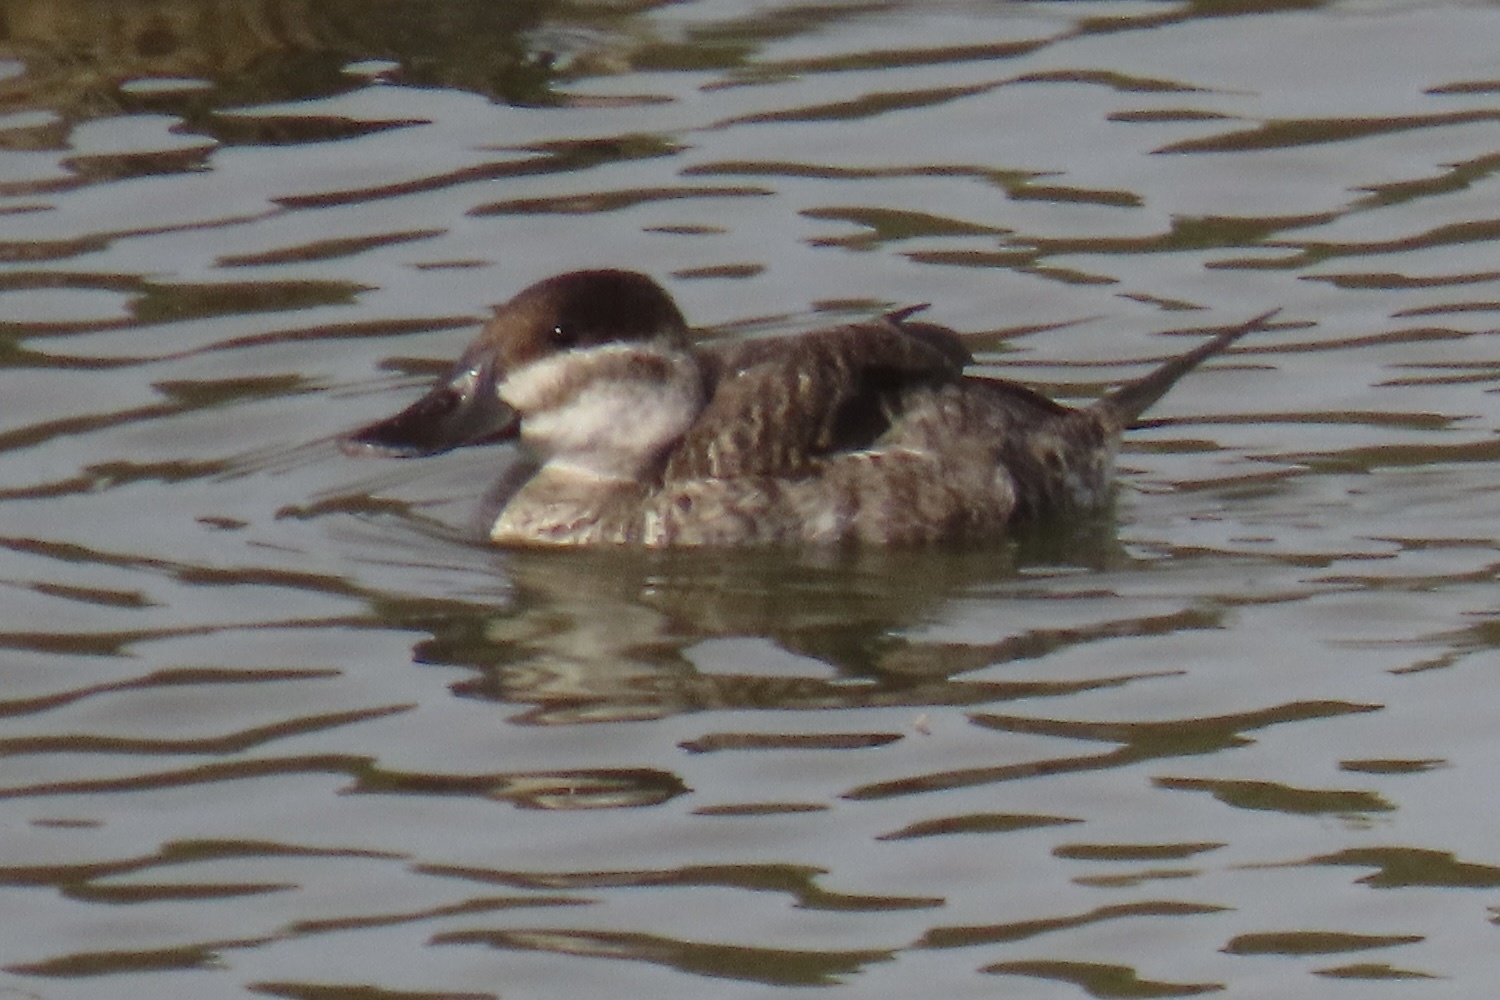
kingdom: Animalia
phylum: Chordata
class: Aves
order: Anseriformes
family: Anatidae
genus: Oxyura
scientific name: Oxyura jamaicensis
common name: Ruddy duck
